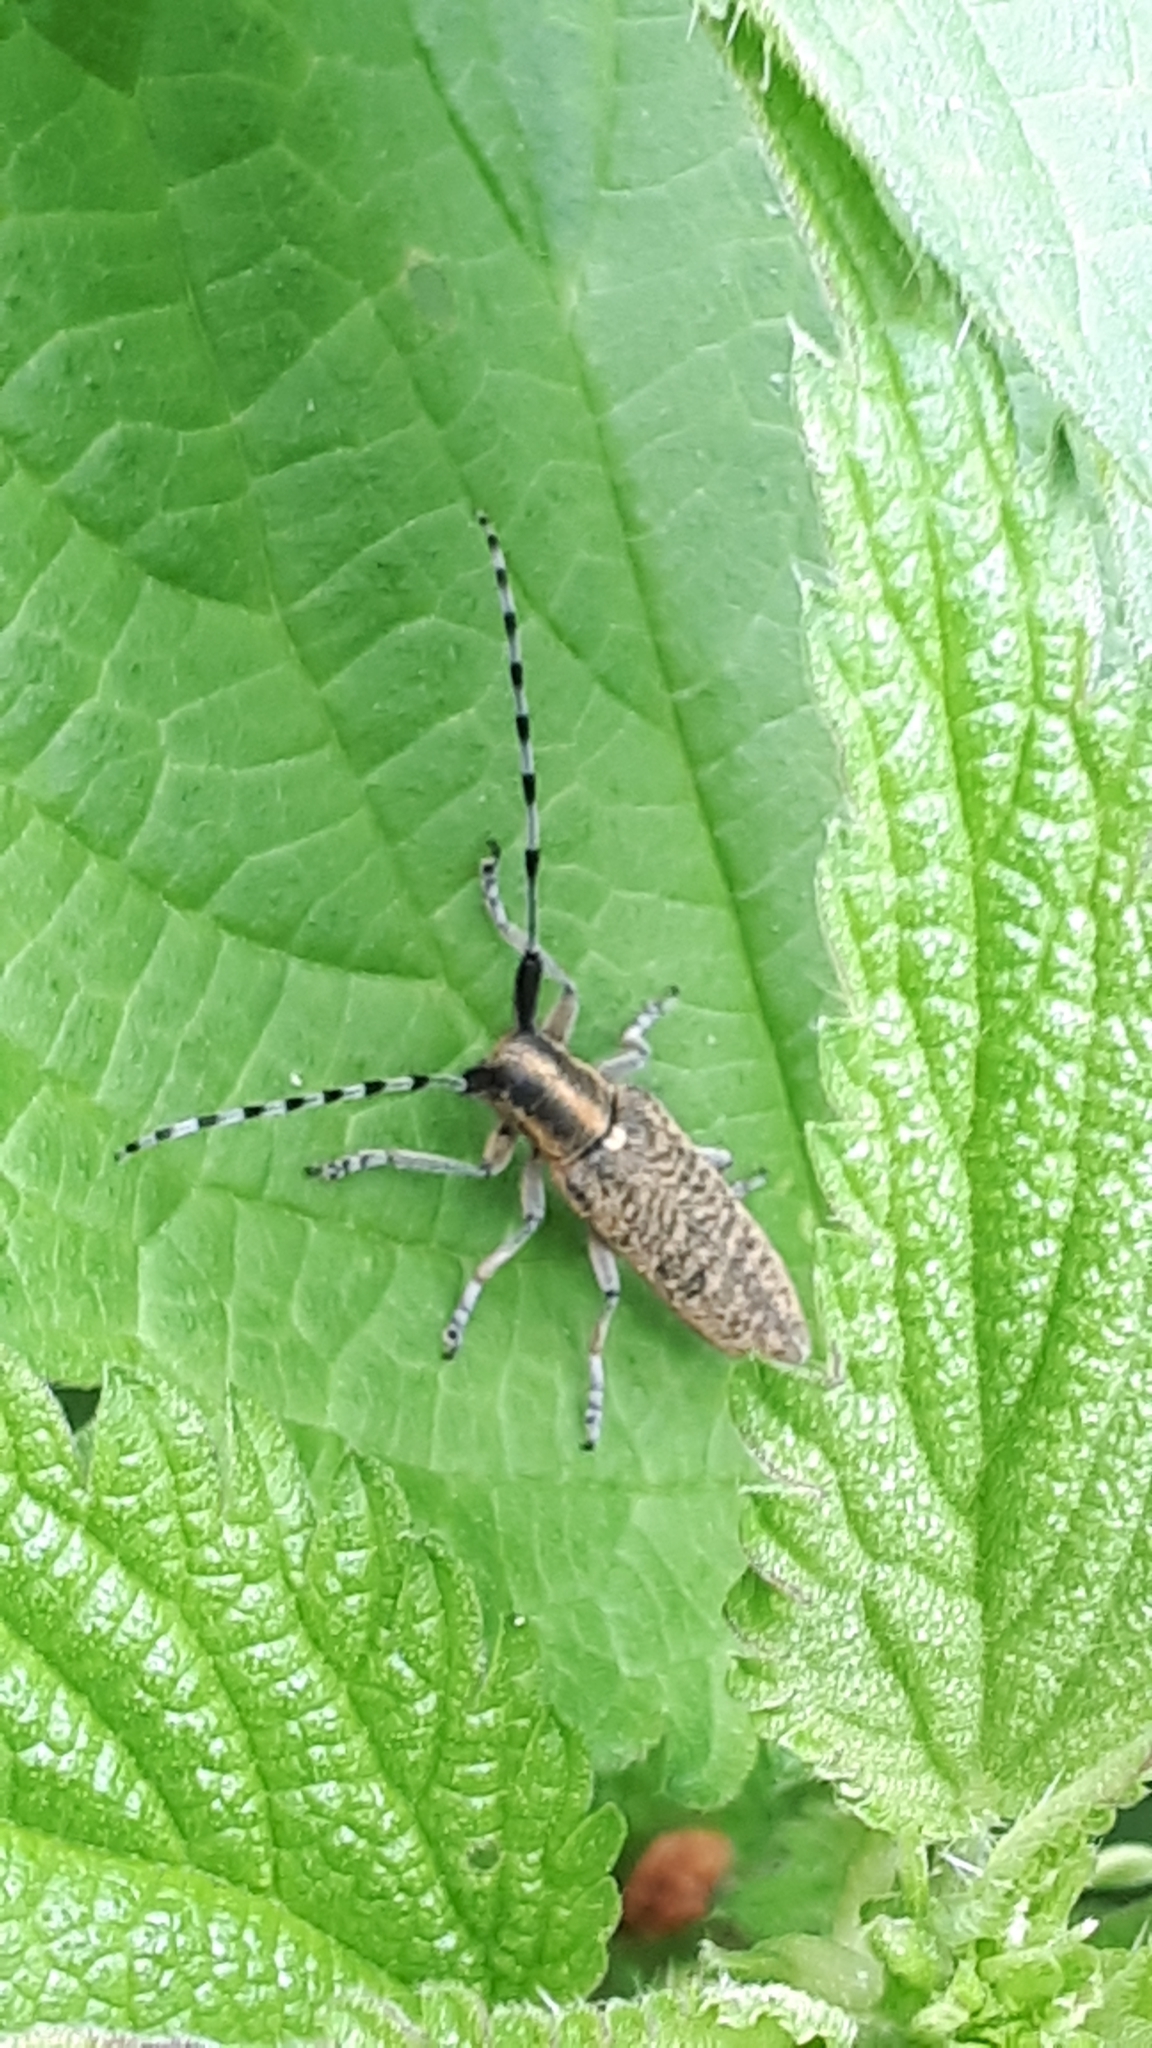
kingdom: Animalia
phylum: Arthropoda
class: Insecta
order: Coleoptera
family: Cerambycidae
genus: Agapanthia
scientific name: Agapanthia villosoviridescens
